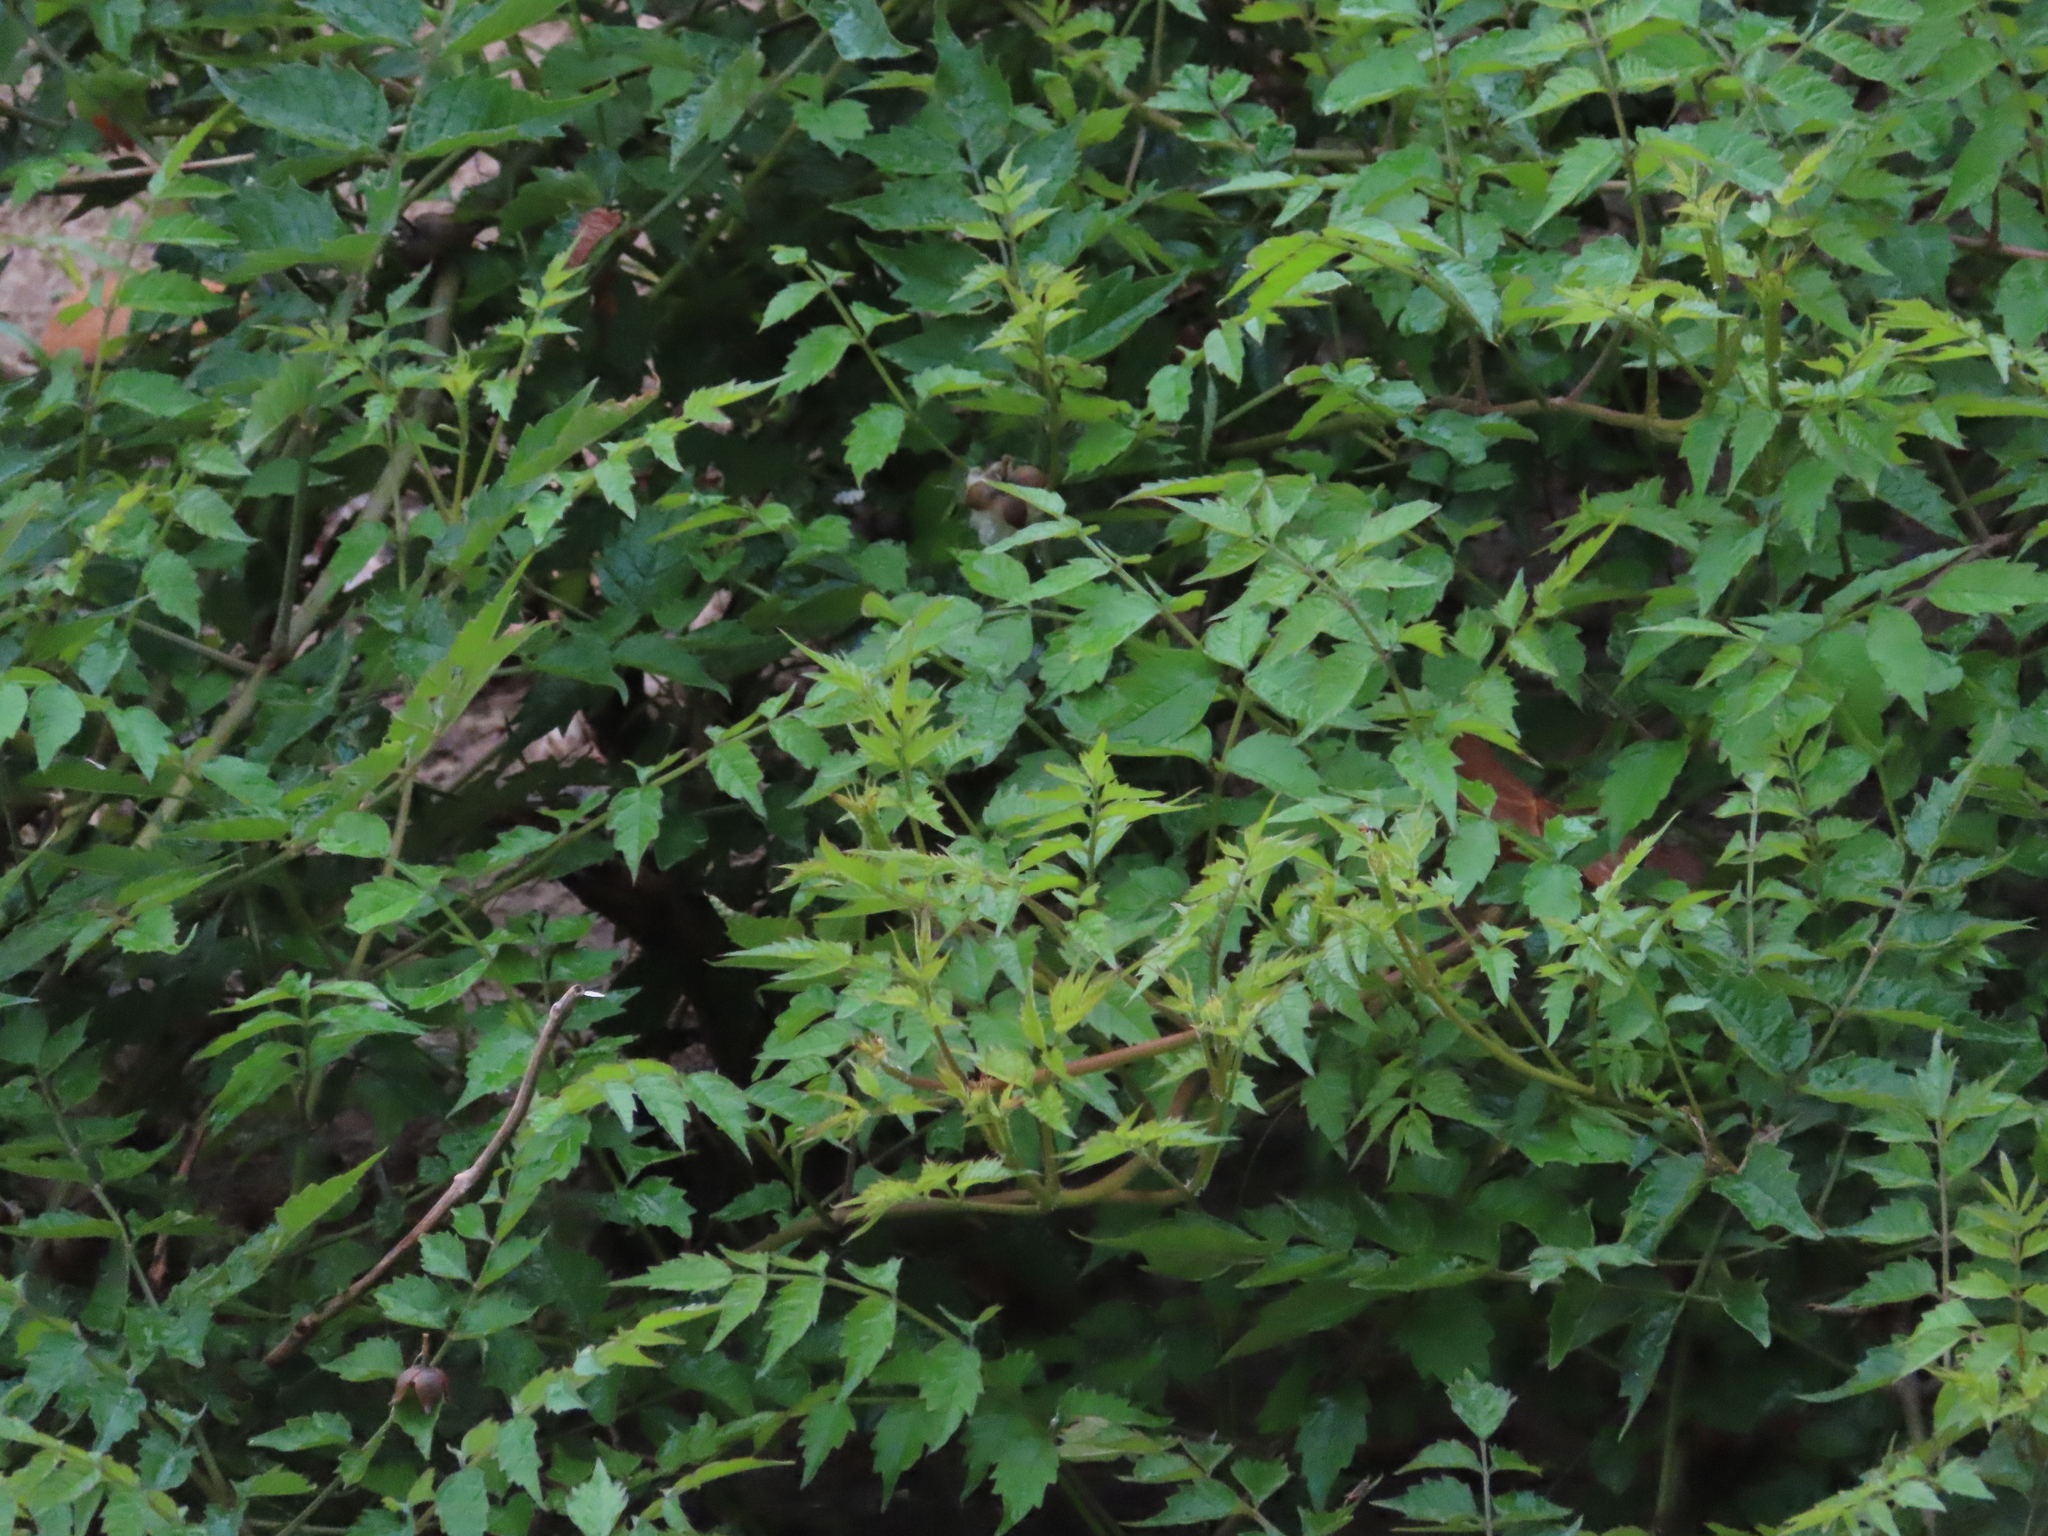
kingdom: Plantae
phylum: Tracheophyta
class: Magnoliopsida
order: Lamiales
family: Bignoniaceae
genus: Campsis
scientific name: Campsis radicans
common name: Trumpet-creeper
